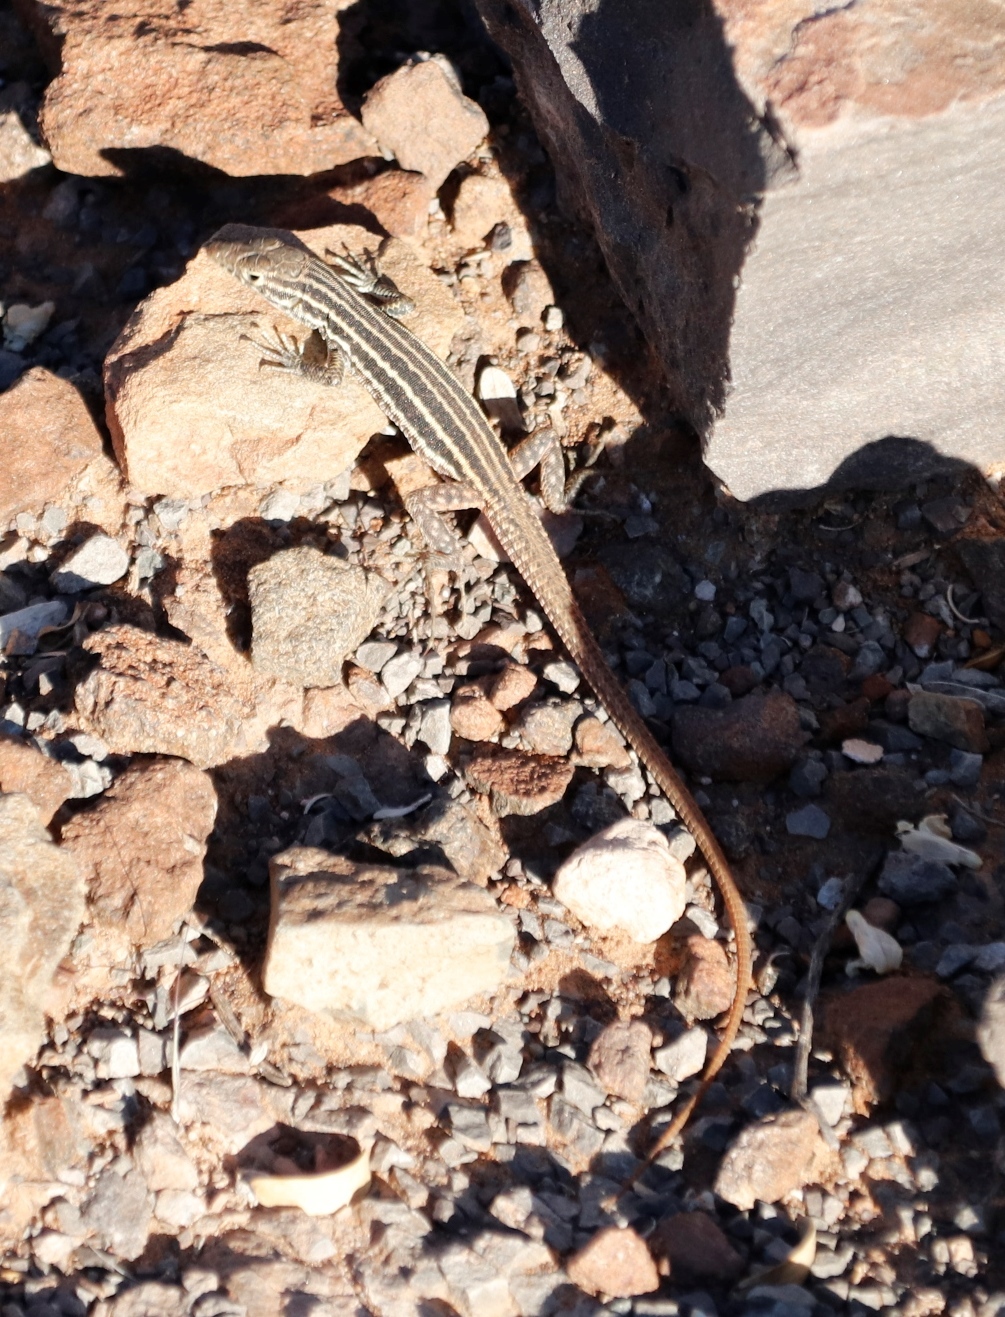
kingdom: Animalia
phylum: Chordata
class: Squamata
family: Lacertidae
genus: Pedioplanis
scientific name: Pedioplanis namaquensis
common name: Namaqua sand lizard
